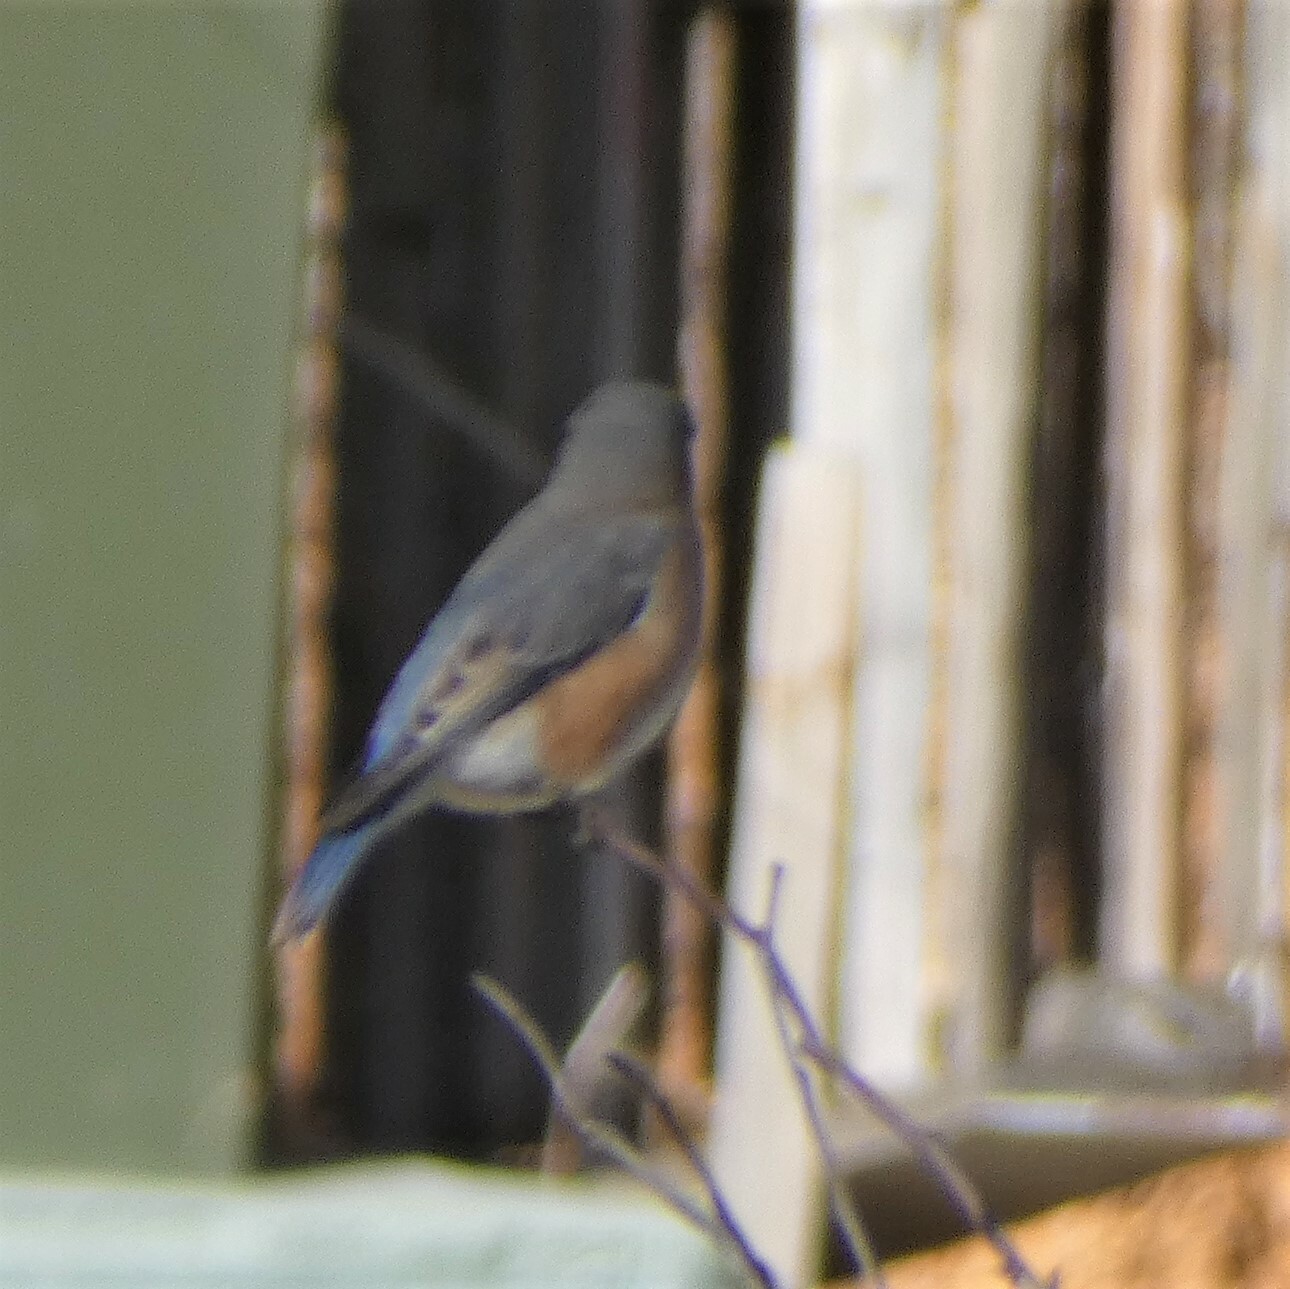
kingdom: Animalia
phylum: Chordata
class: Aves
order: Passeriformes
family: Turdidae
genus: Sialia
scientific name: Sialia sialis
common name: Eastern bluebird
